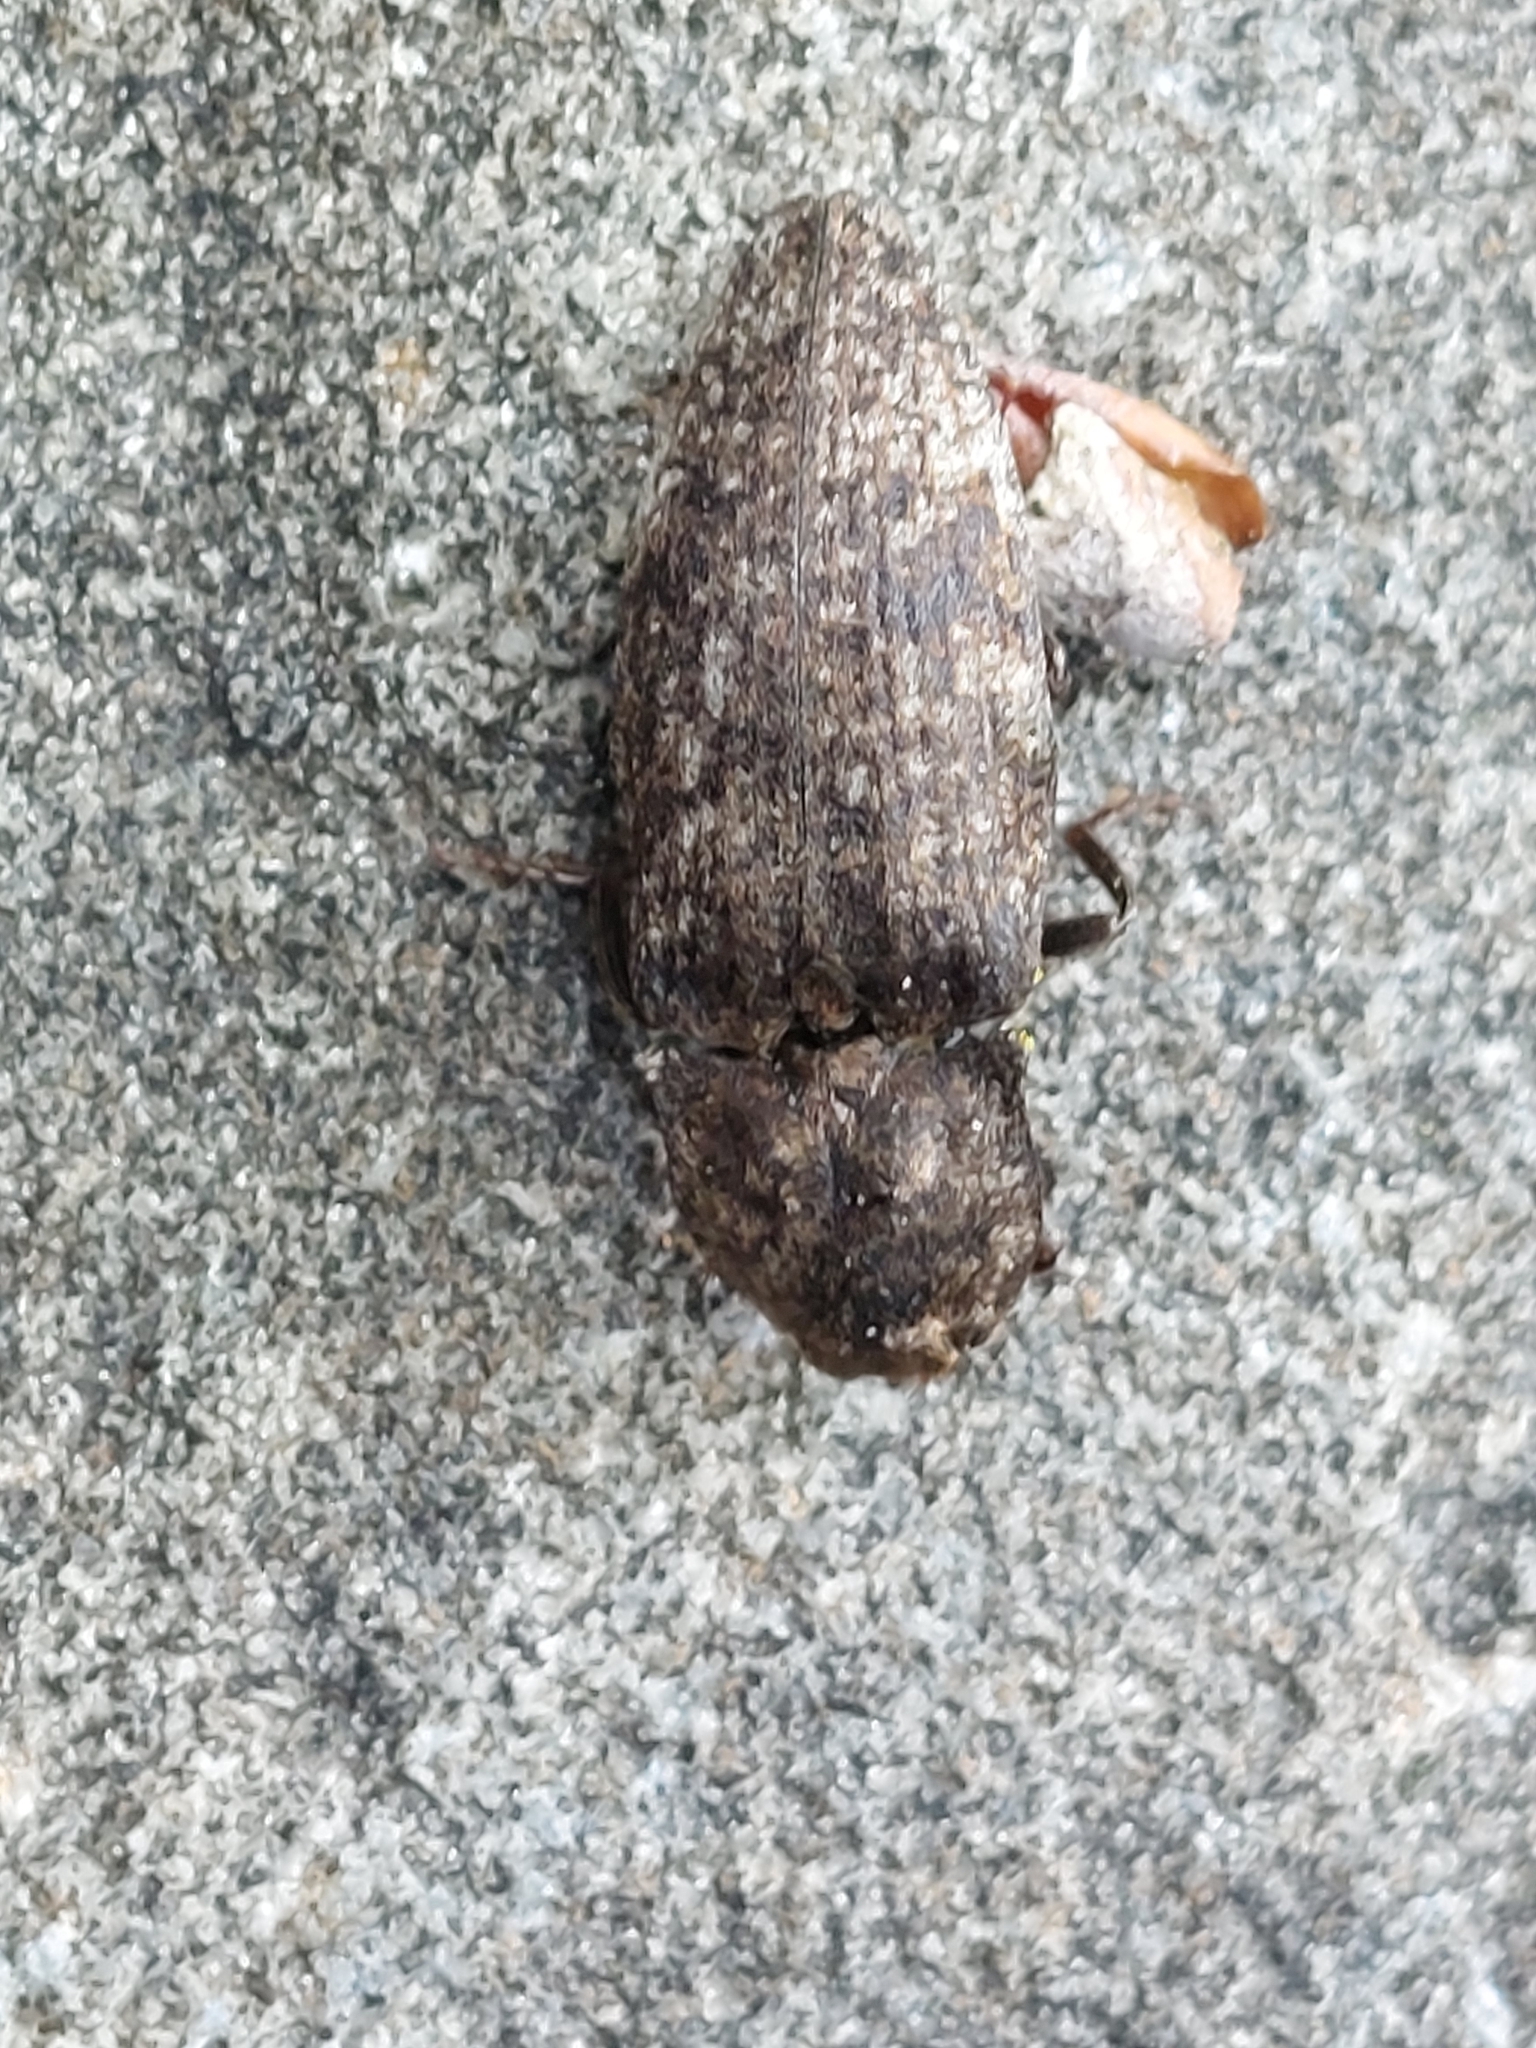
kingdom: Animalia
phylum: Arthropoda
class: Insecta
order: Coleoptera
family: Elateridae
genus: Agrypnus
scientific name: Agrypnus murinus
